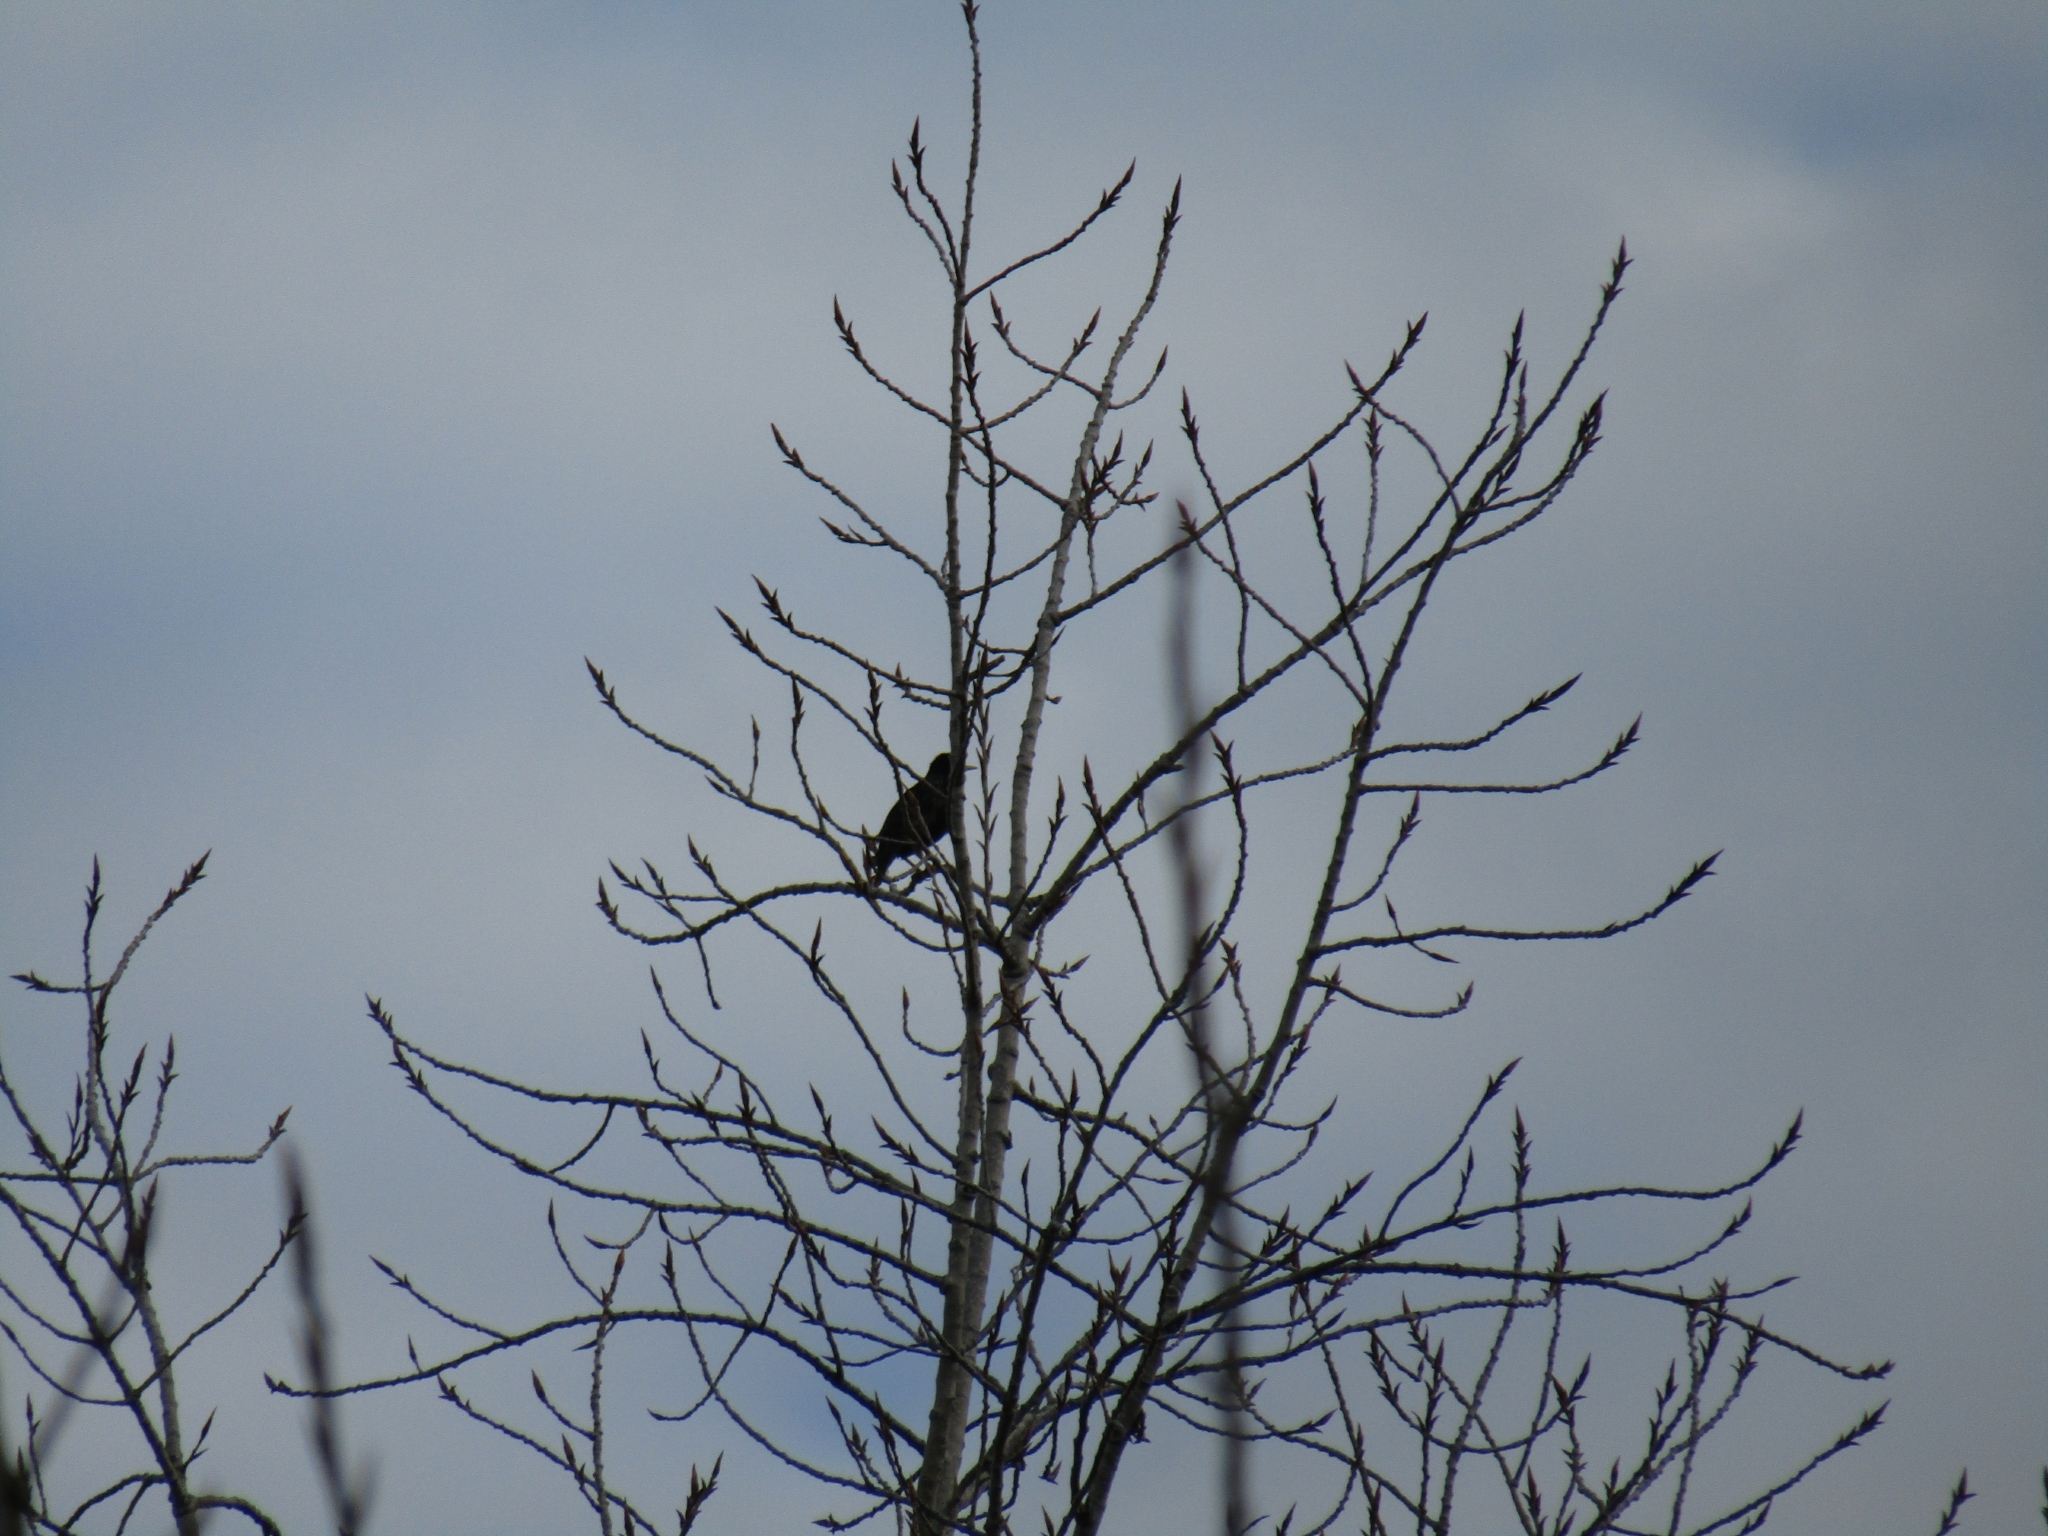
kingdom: Animalia
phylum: Chordata
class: Aves
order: Passeriformes
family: Sturnidae
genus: Sturnus
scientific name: Sturnus vulgaris
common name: Common starling
